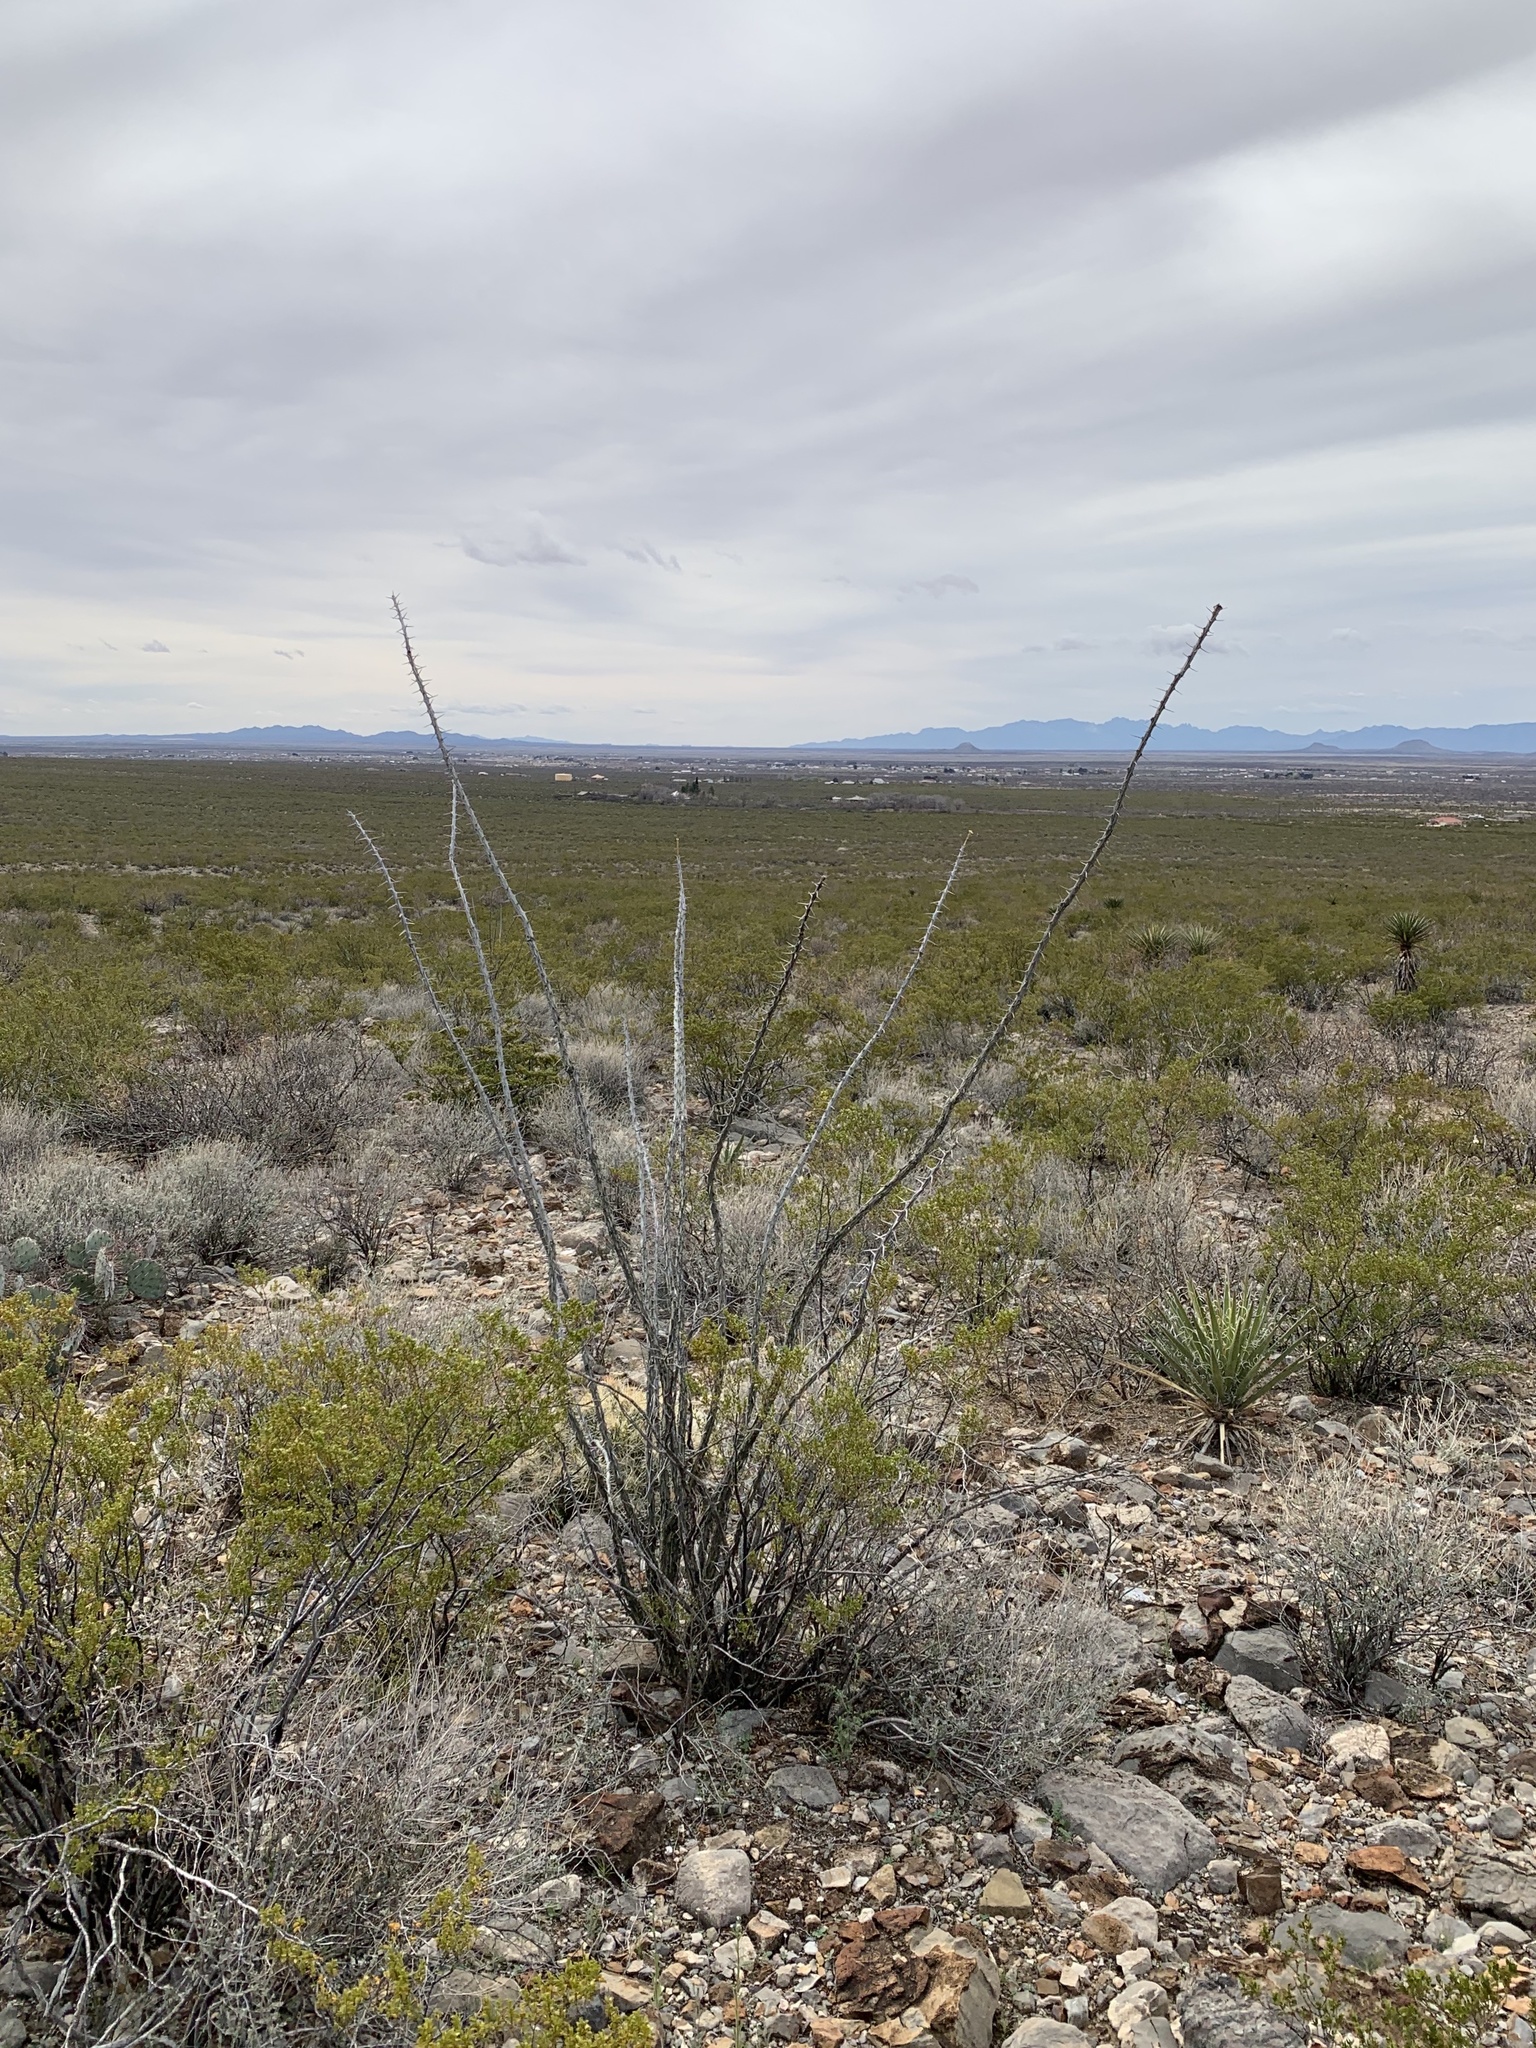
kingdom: Plantae
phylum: Tracheophyta
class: Magnoliopsida
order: Ericales
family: Fouquieriaceae
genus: Fouquieria
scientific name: Fouquieria splendens
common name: Vine-cactus
